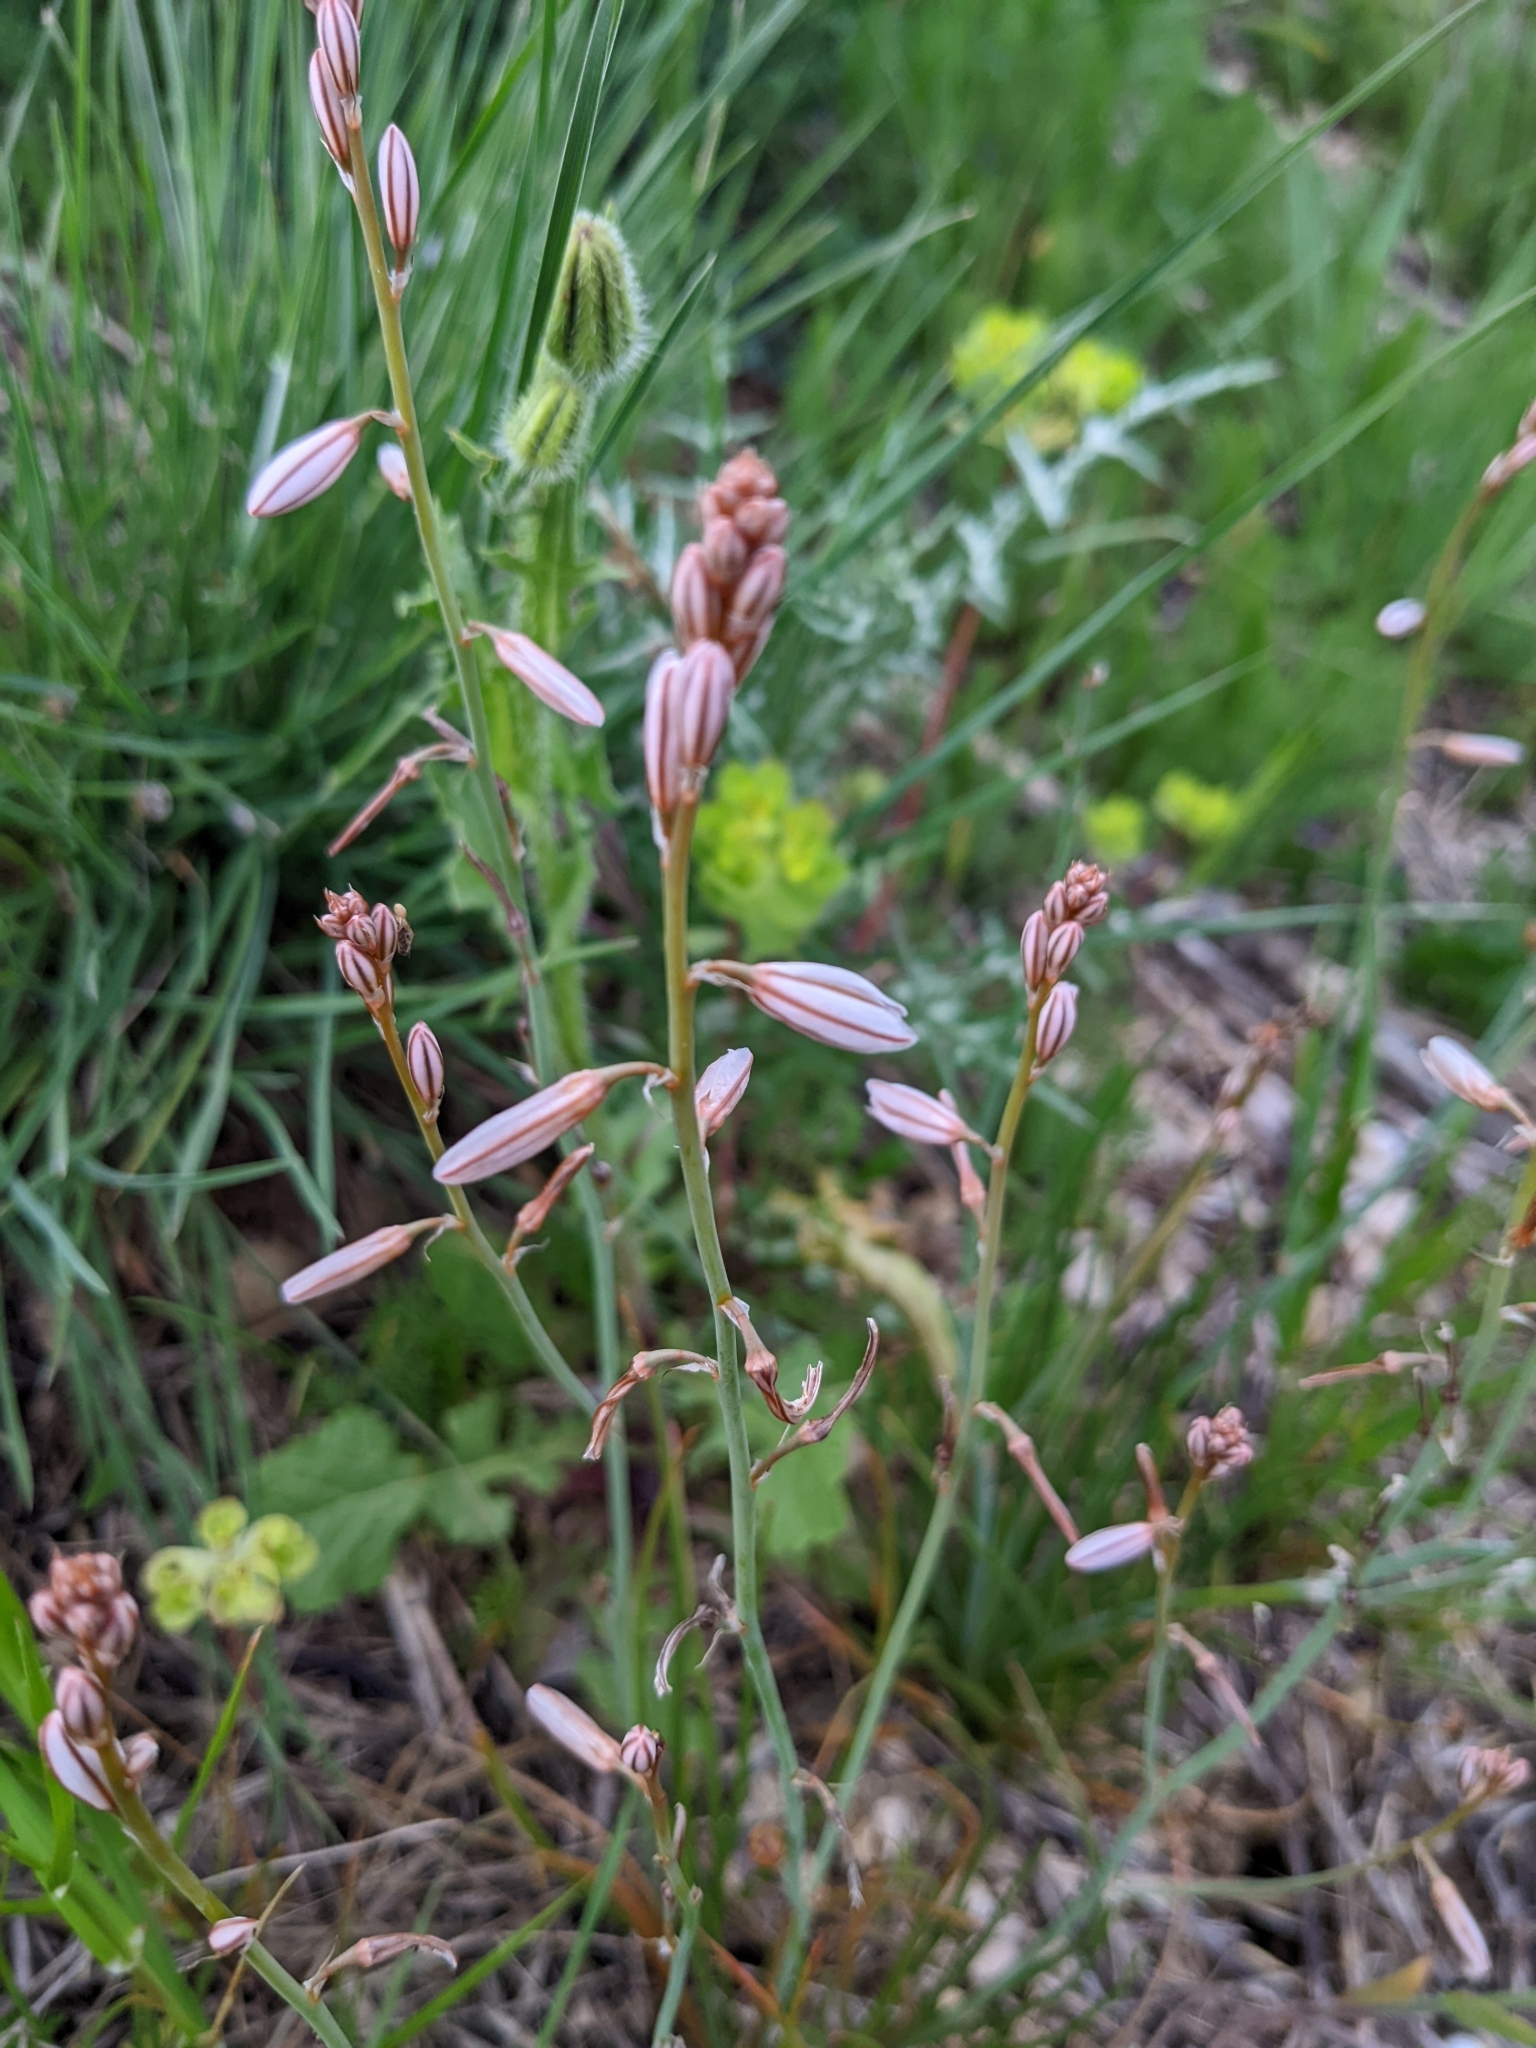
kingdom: Plantae
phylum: Tracheophyta
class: Liliopsida
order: Asparagales
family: Asphodelaceae
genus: Asphodelus
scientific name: Asphodelus fistulosus
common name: Onionweed
